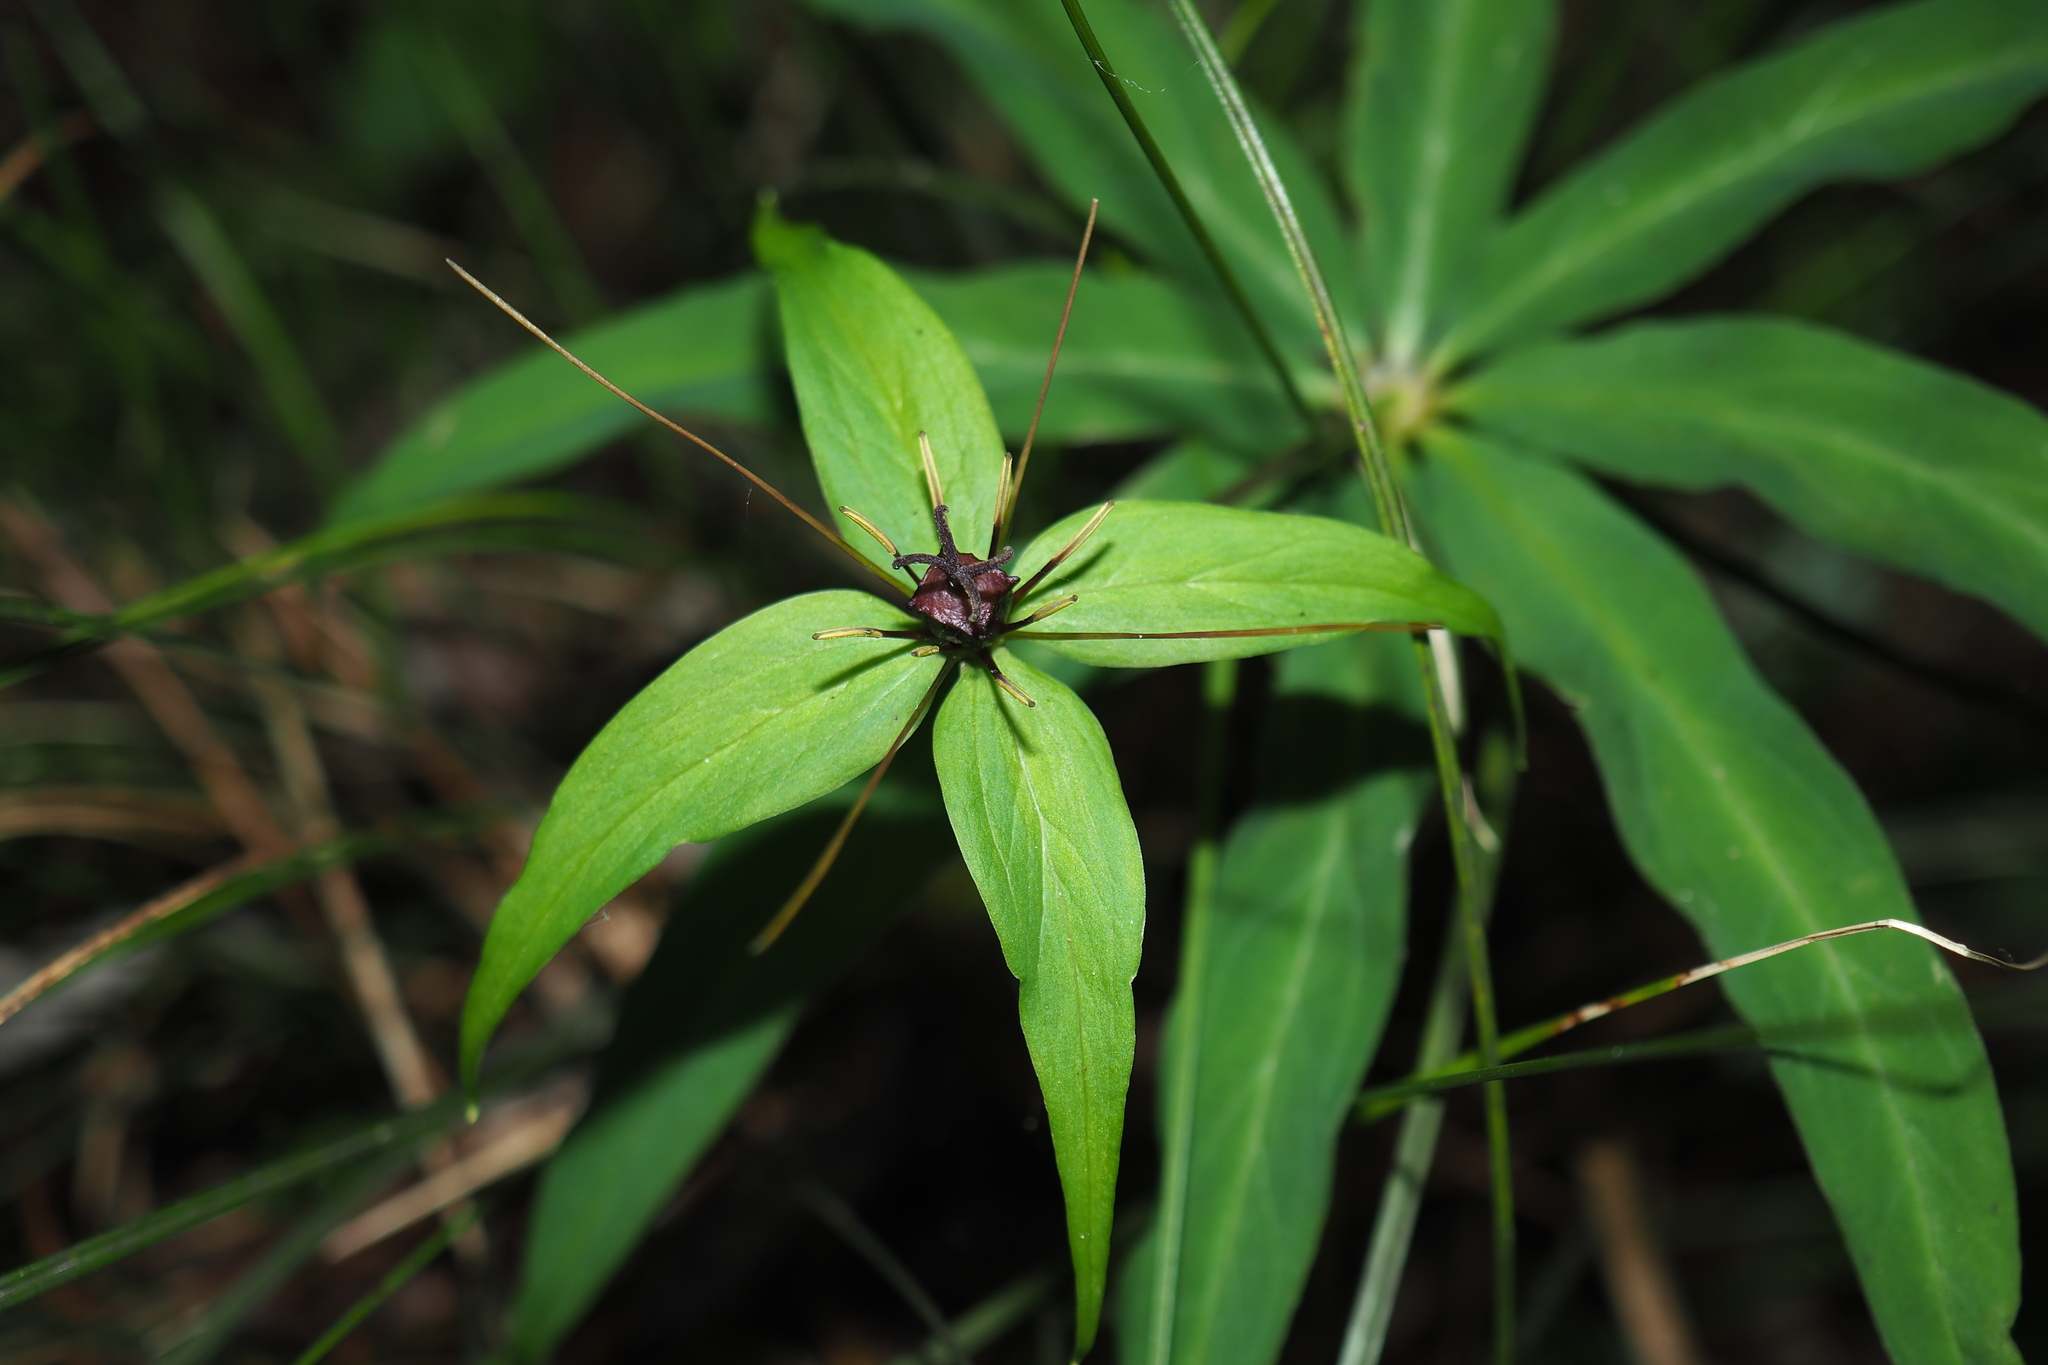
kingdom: Plantae
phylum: Tracheophyta
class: Liliopsida
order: Liliales
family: Melanthiaceae
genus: Paris
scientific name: Paris lancifolia
